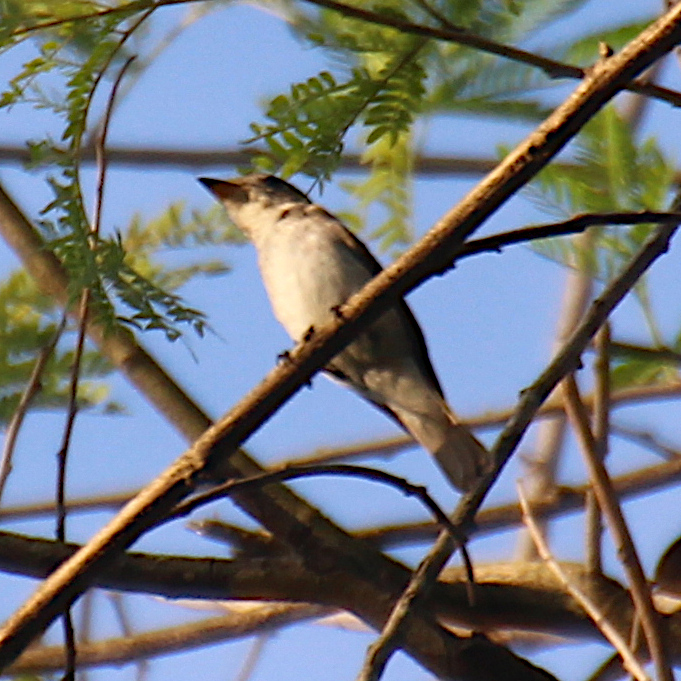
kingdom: Animalia
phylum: Chordata
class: Aves
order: Passeriformes
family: Muscicapidae
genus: Muscicapa
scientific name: Muscicapa latirostris
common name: Asian brown flycatcher
